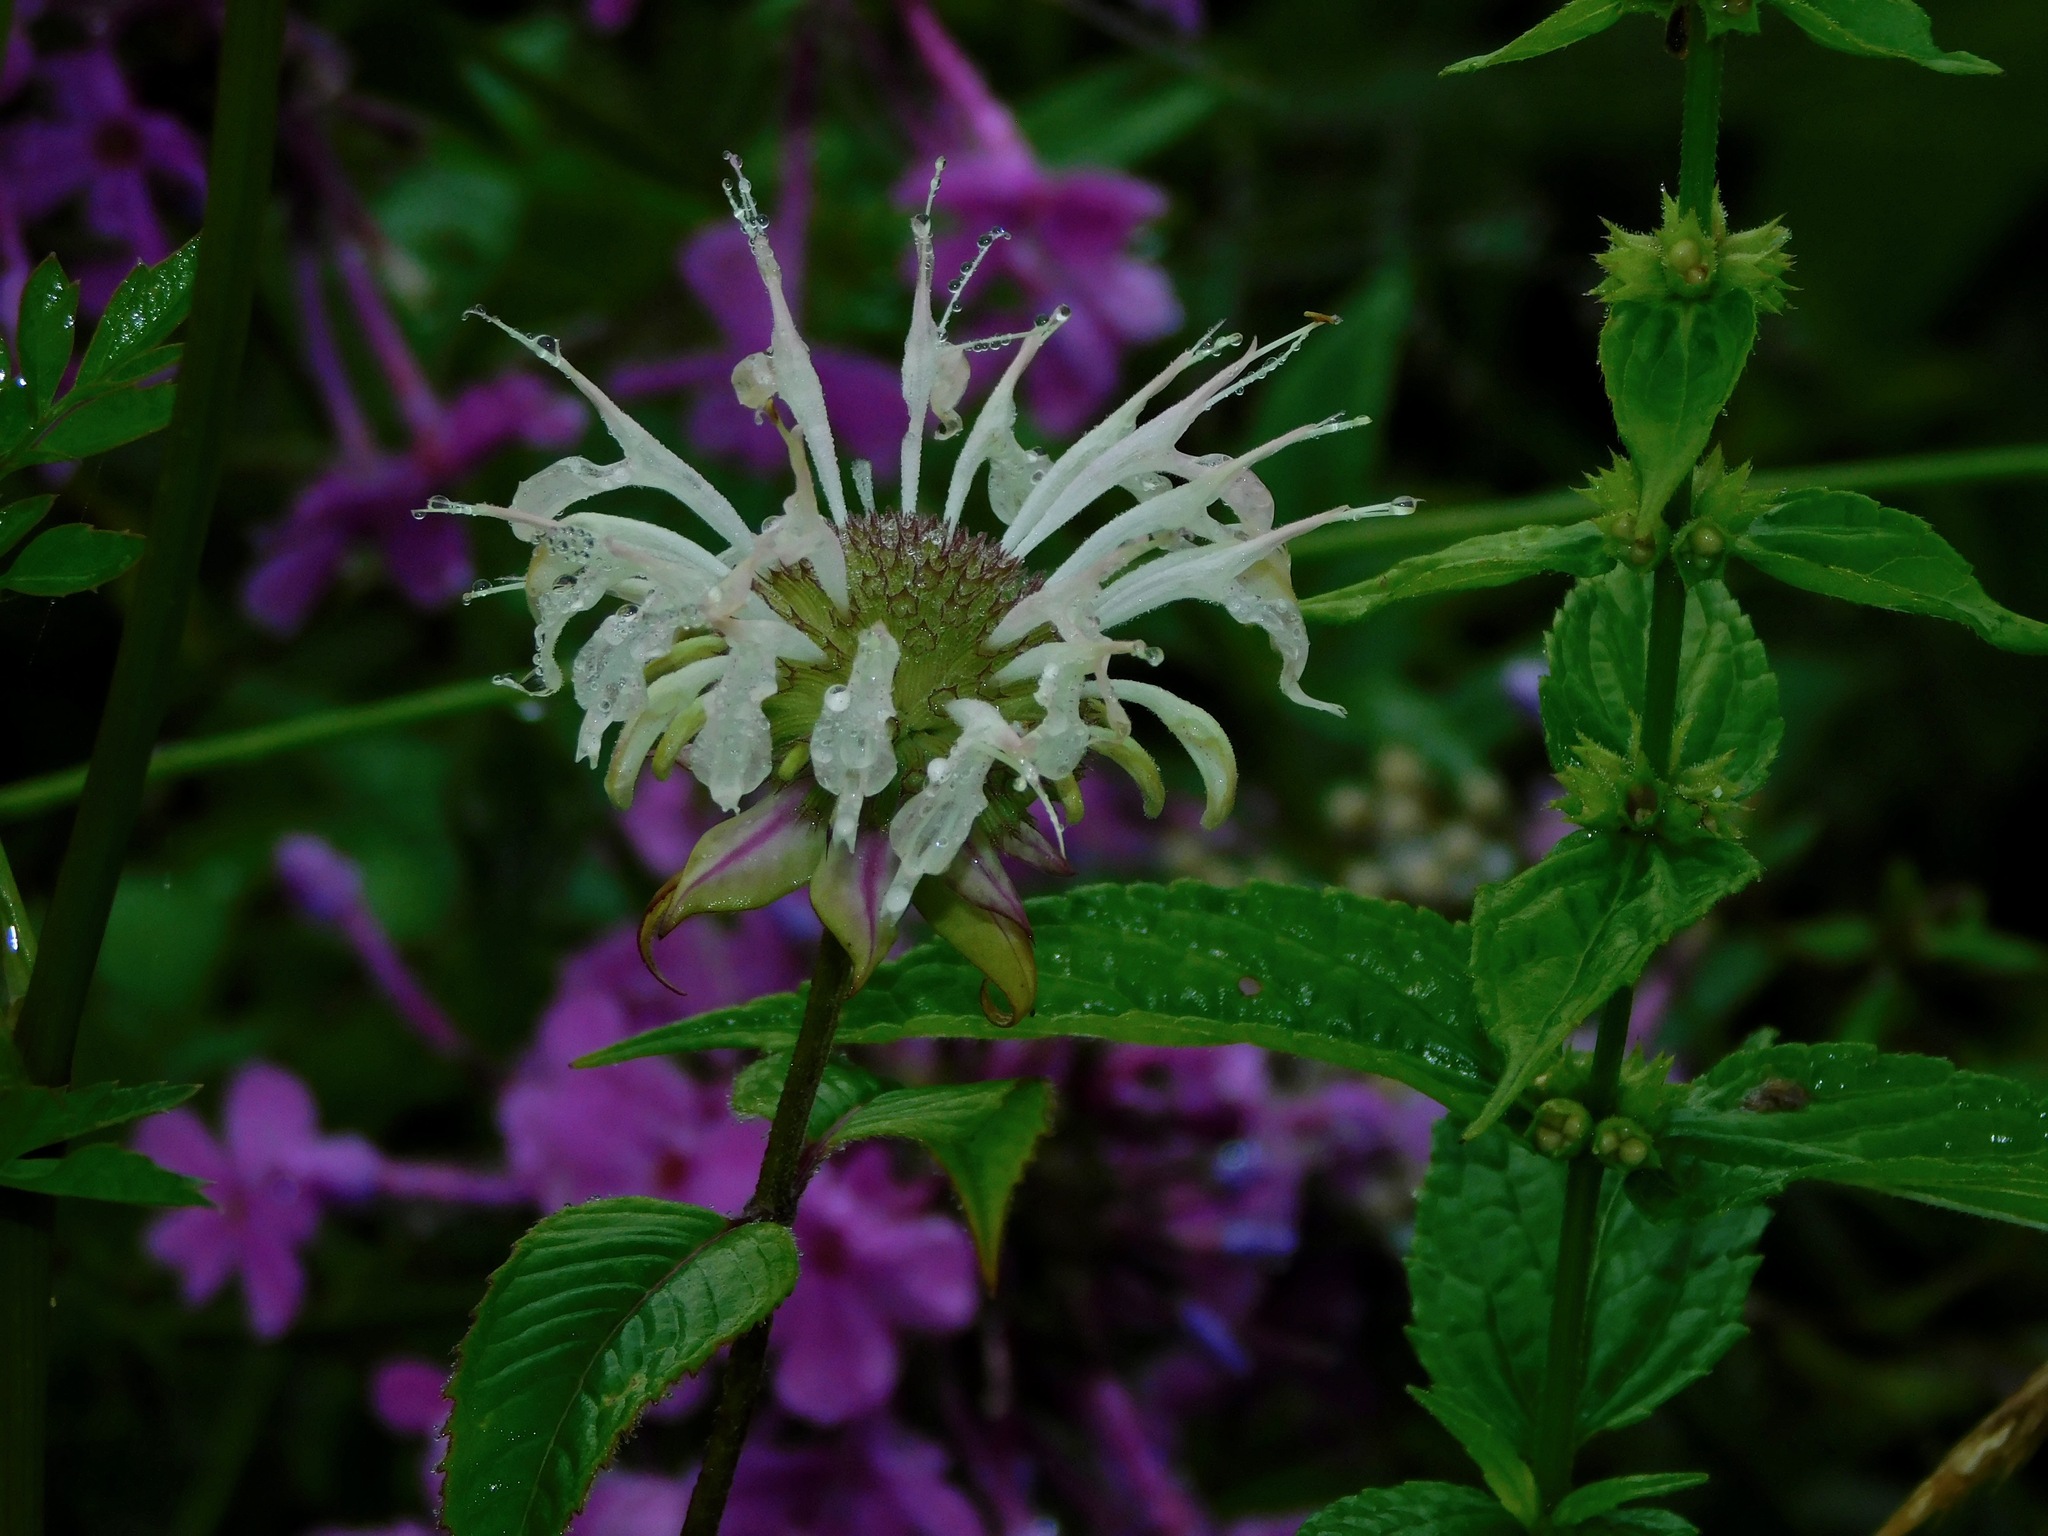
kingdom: Plantae
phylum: Tracheophyta
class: Magnoliopsida
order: Lamiales
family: Lamiaceae
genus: Monarda
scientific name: Monarda clinopodia
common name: Basil beebalm
